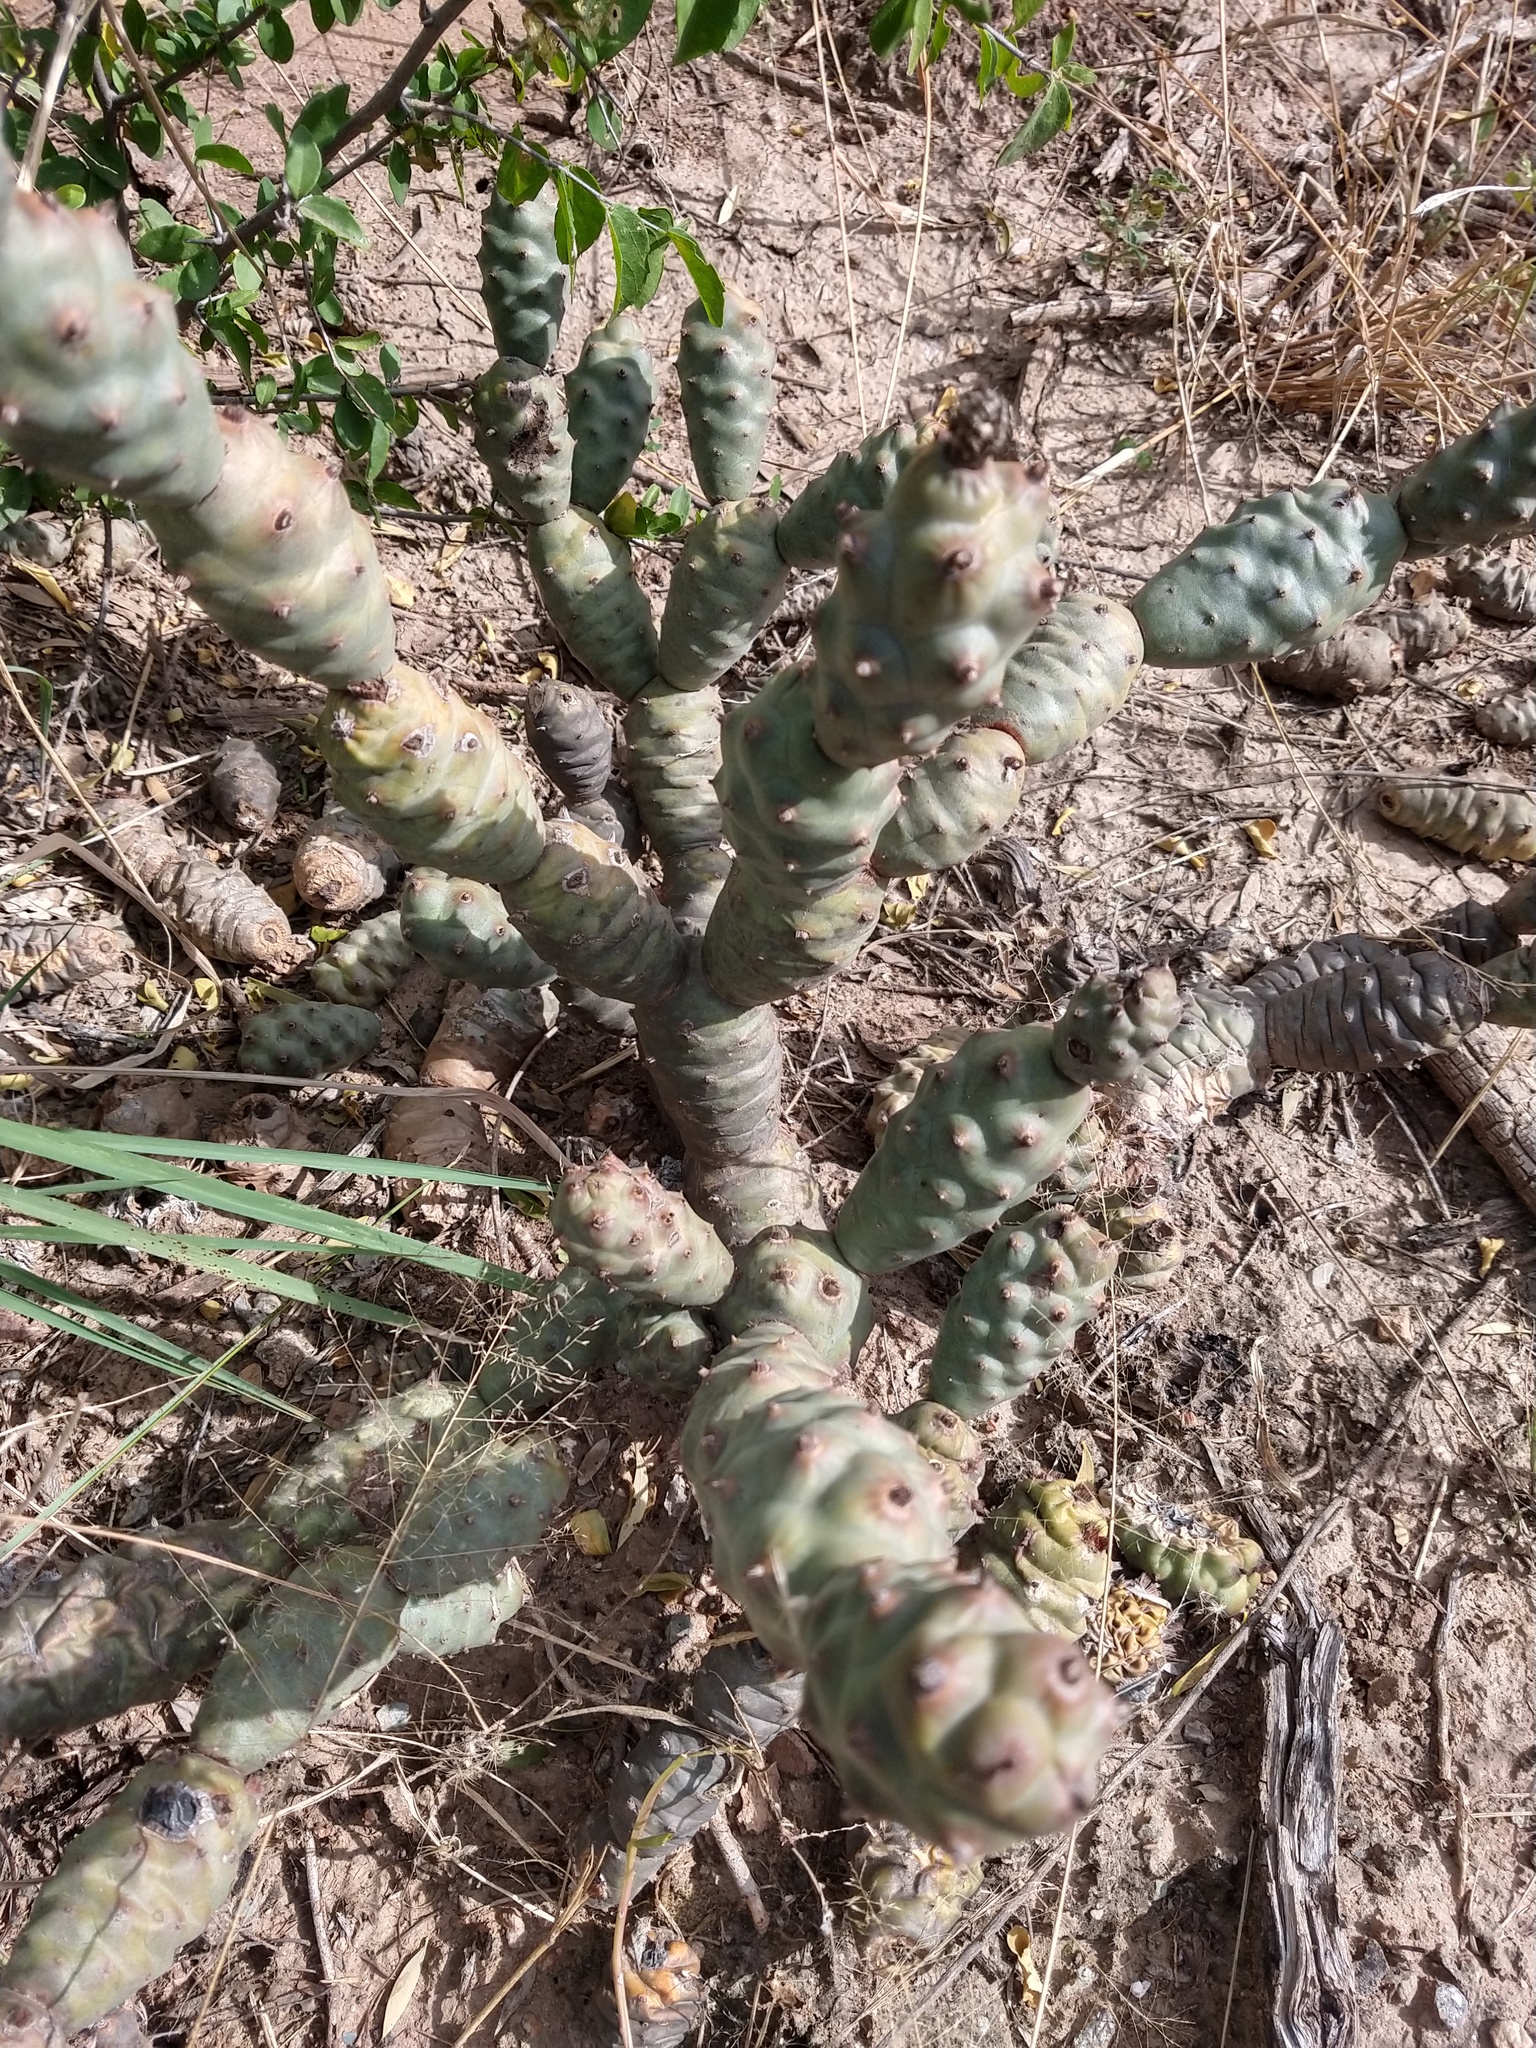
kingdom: Plantae
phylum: Tracheophyta
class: Magnoliopsida
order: Caryophyllales
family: Cactaceae
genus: Tephrocactus
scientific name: Tephrocactus articulatus
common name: Paper cactus
